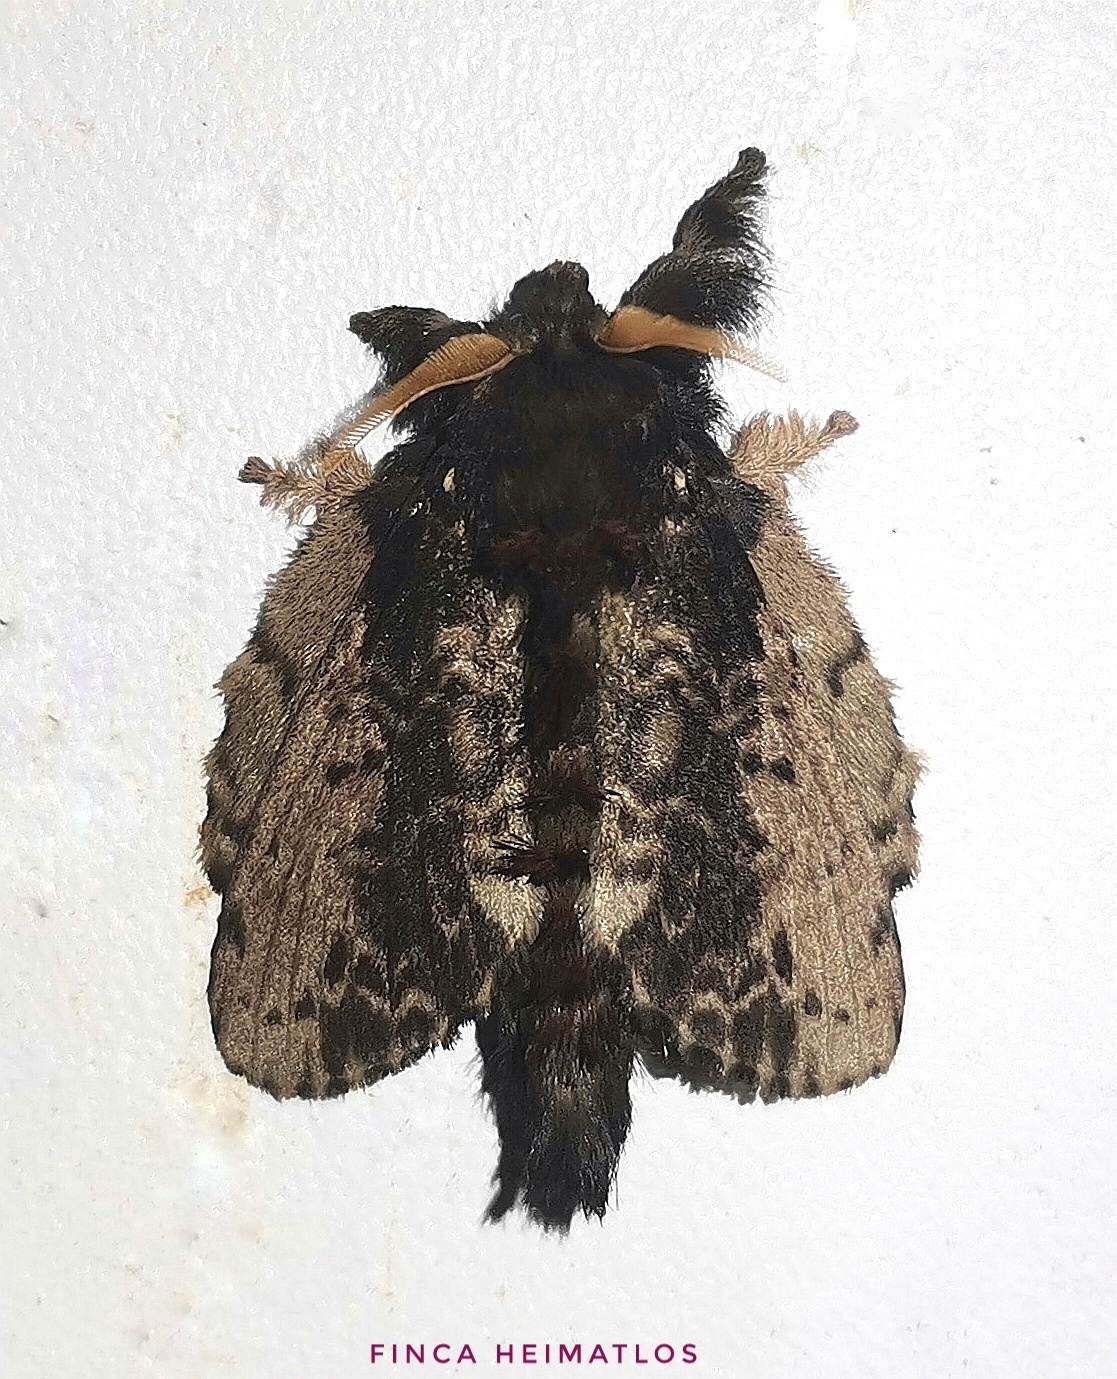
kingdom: Animalia
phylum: Arthropoda
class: Insecta
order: Lepidoptera
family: Lasiocampidae
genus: Euglyphis
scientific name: Euglyphis putrida
